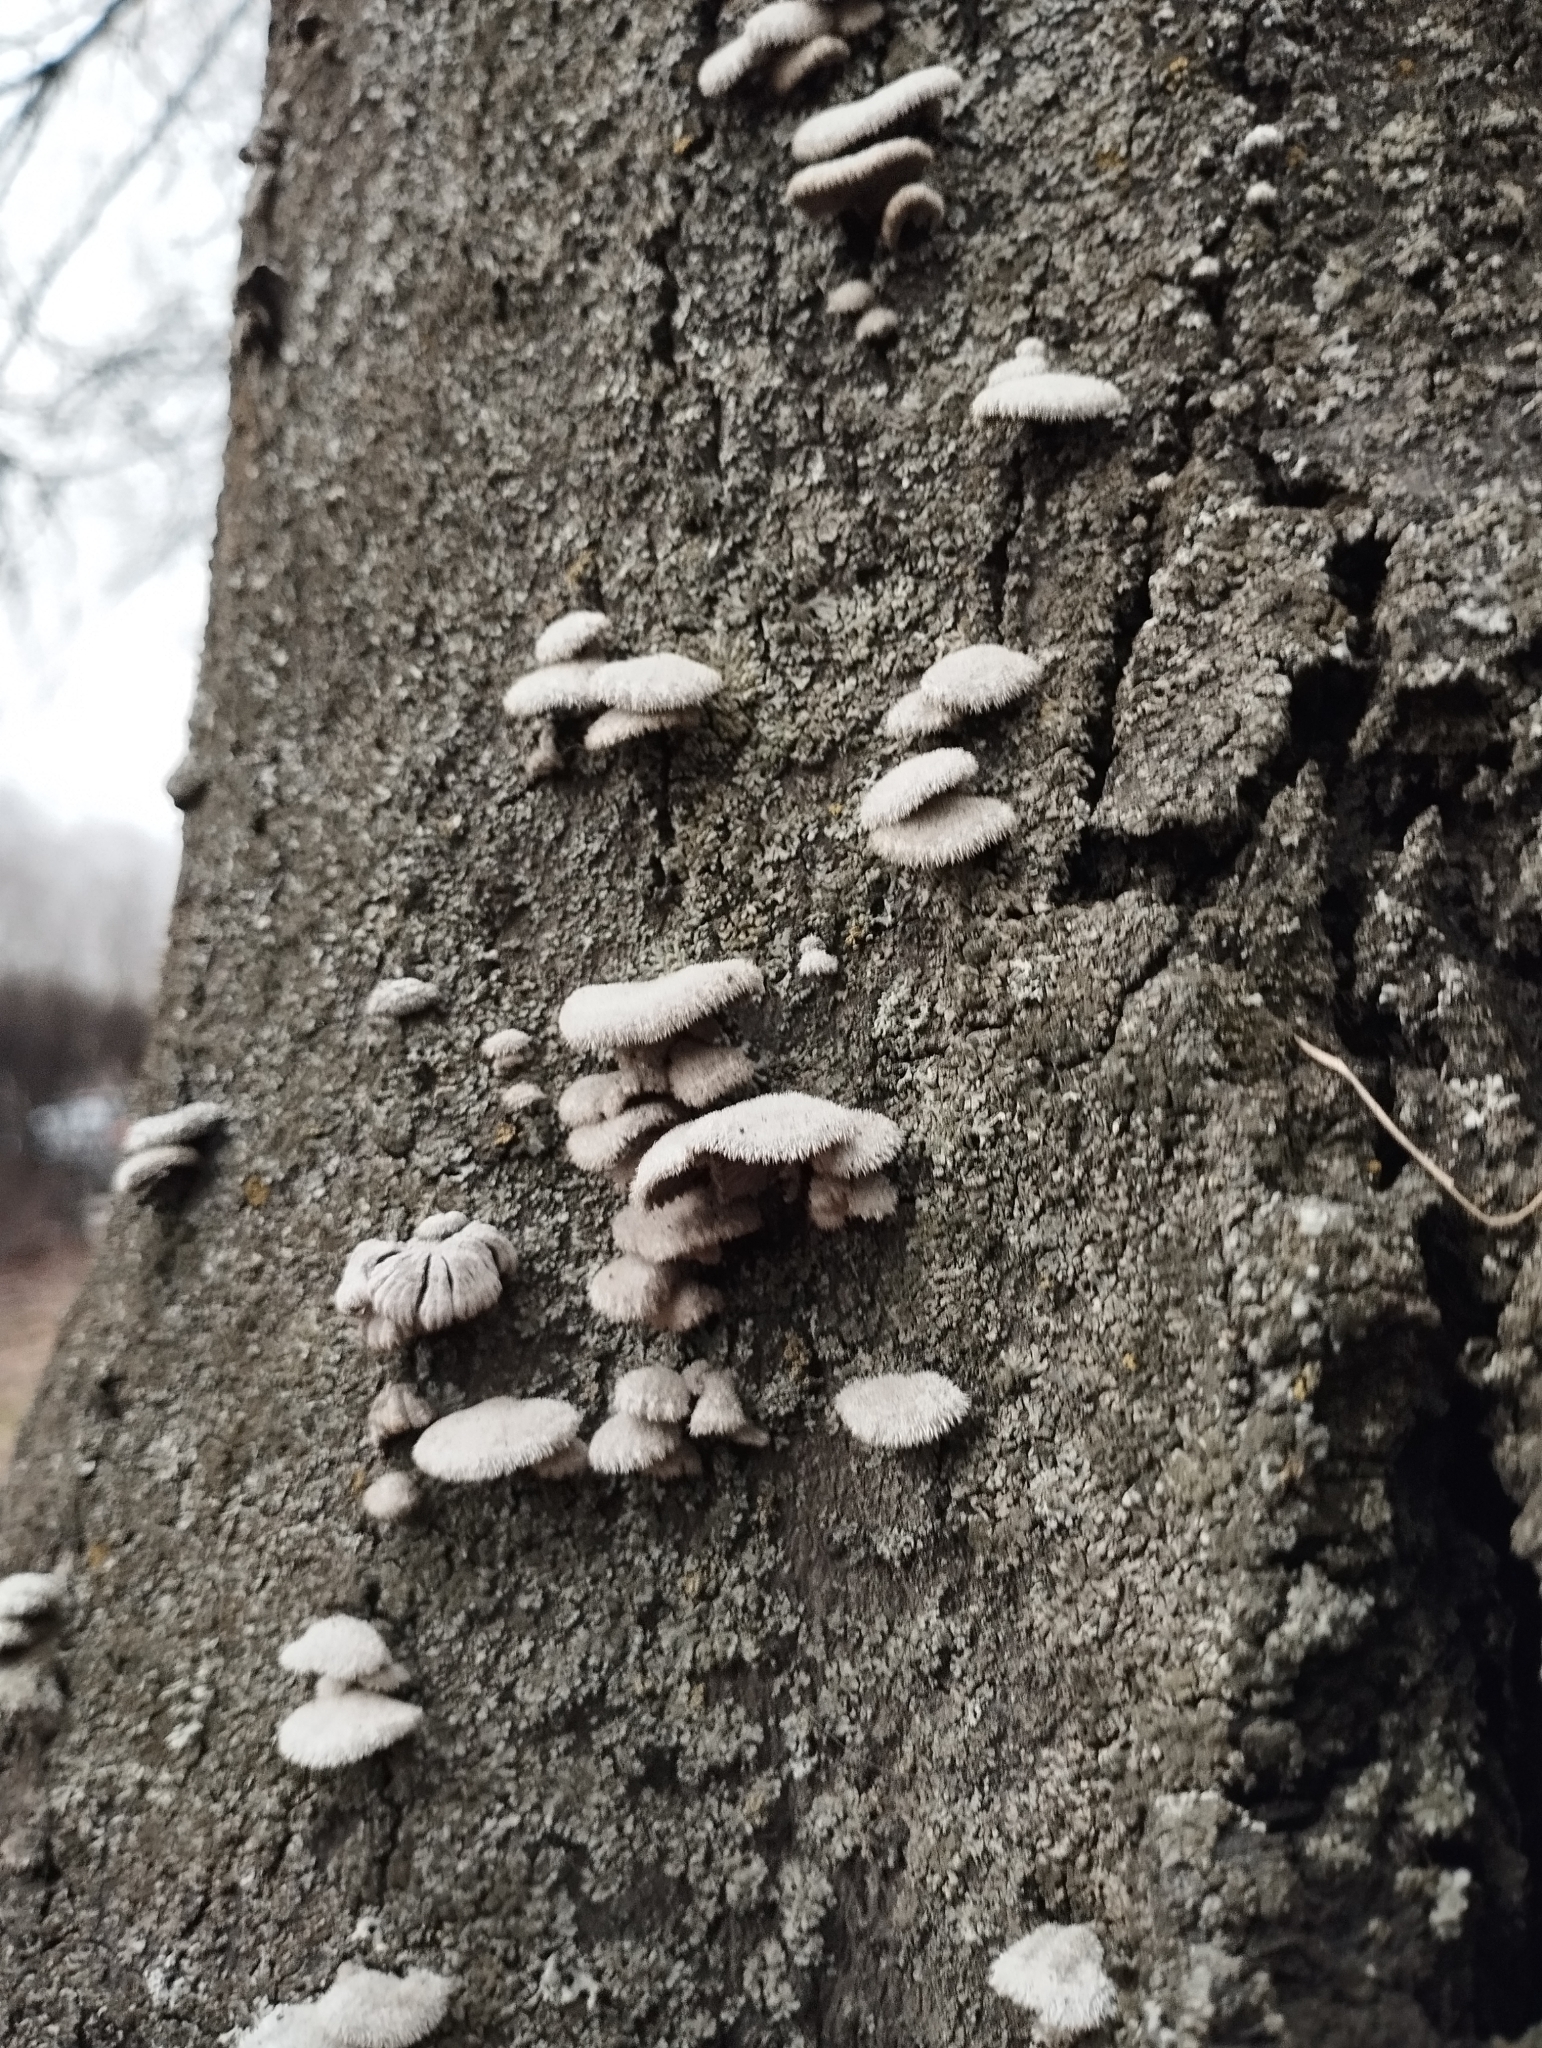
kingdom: Fungi
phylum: Basidiomycota
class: Agaricomycetes
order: Agaricales
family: Schizophyllaceae
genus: Schizophyllum
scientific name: Schizophyllum commune
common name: Common porecrust
